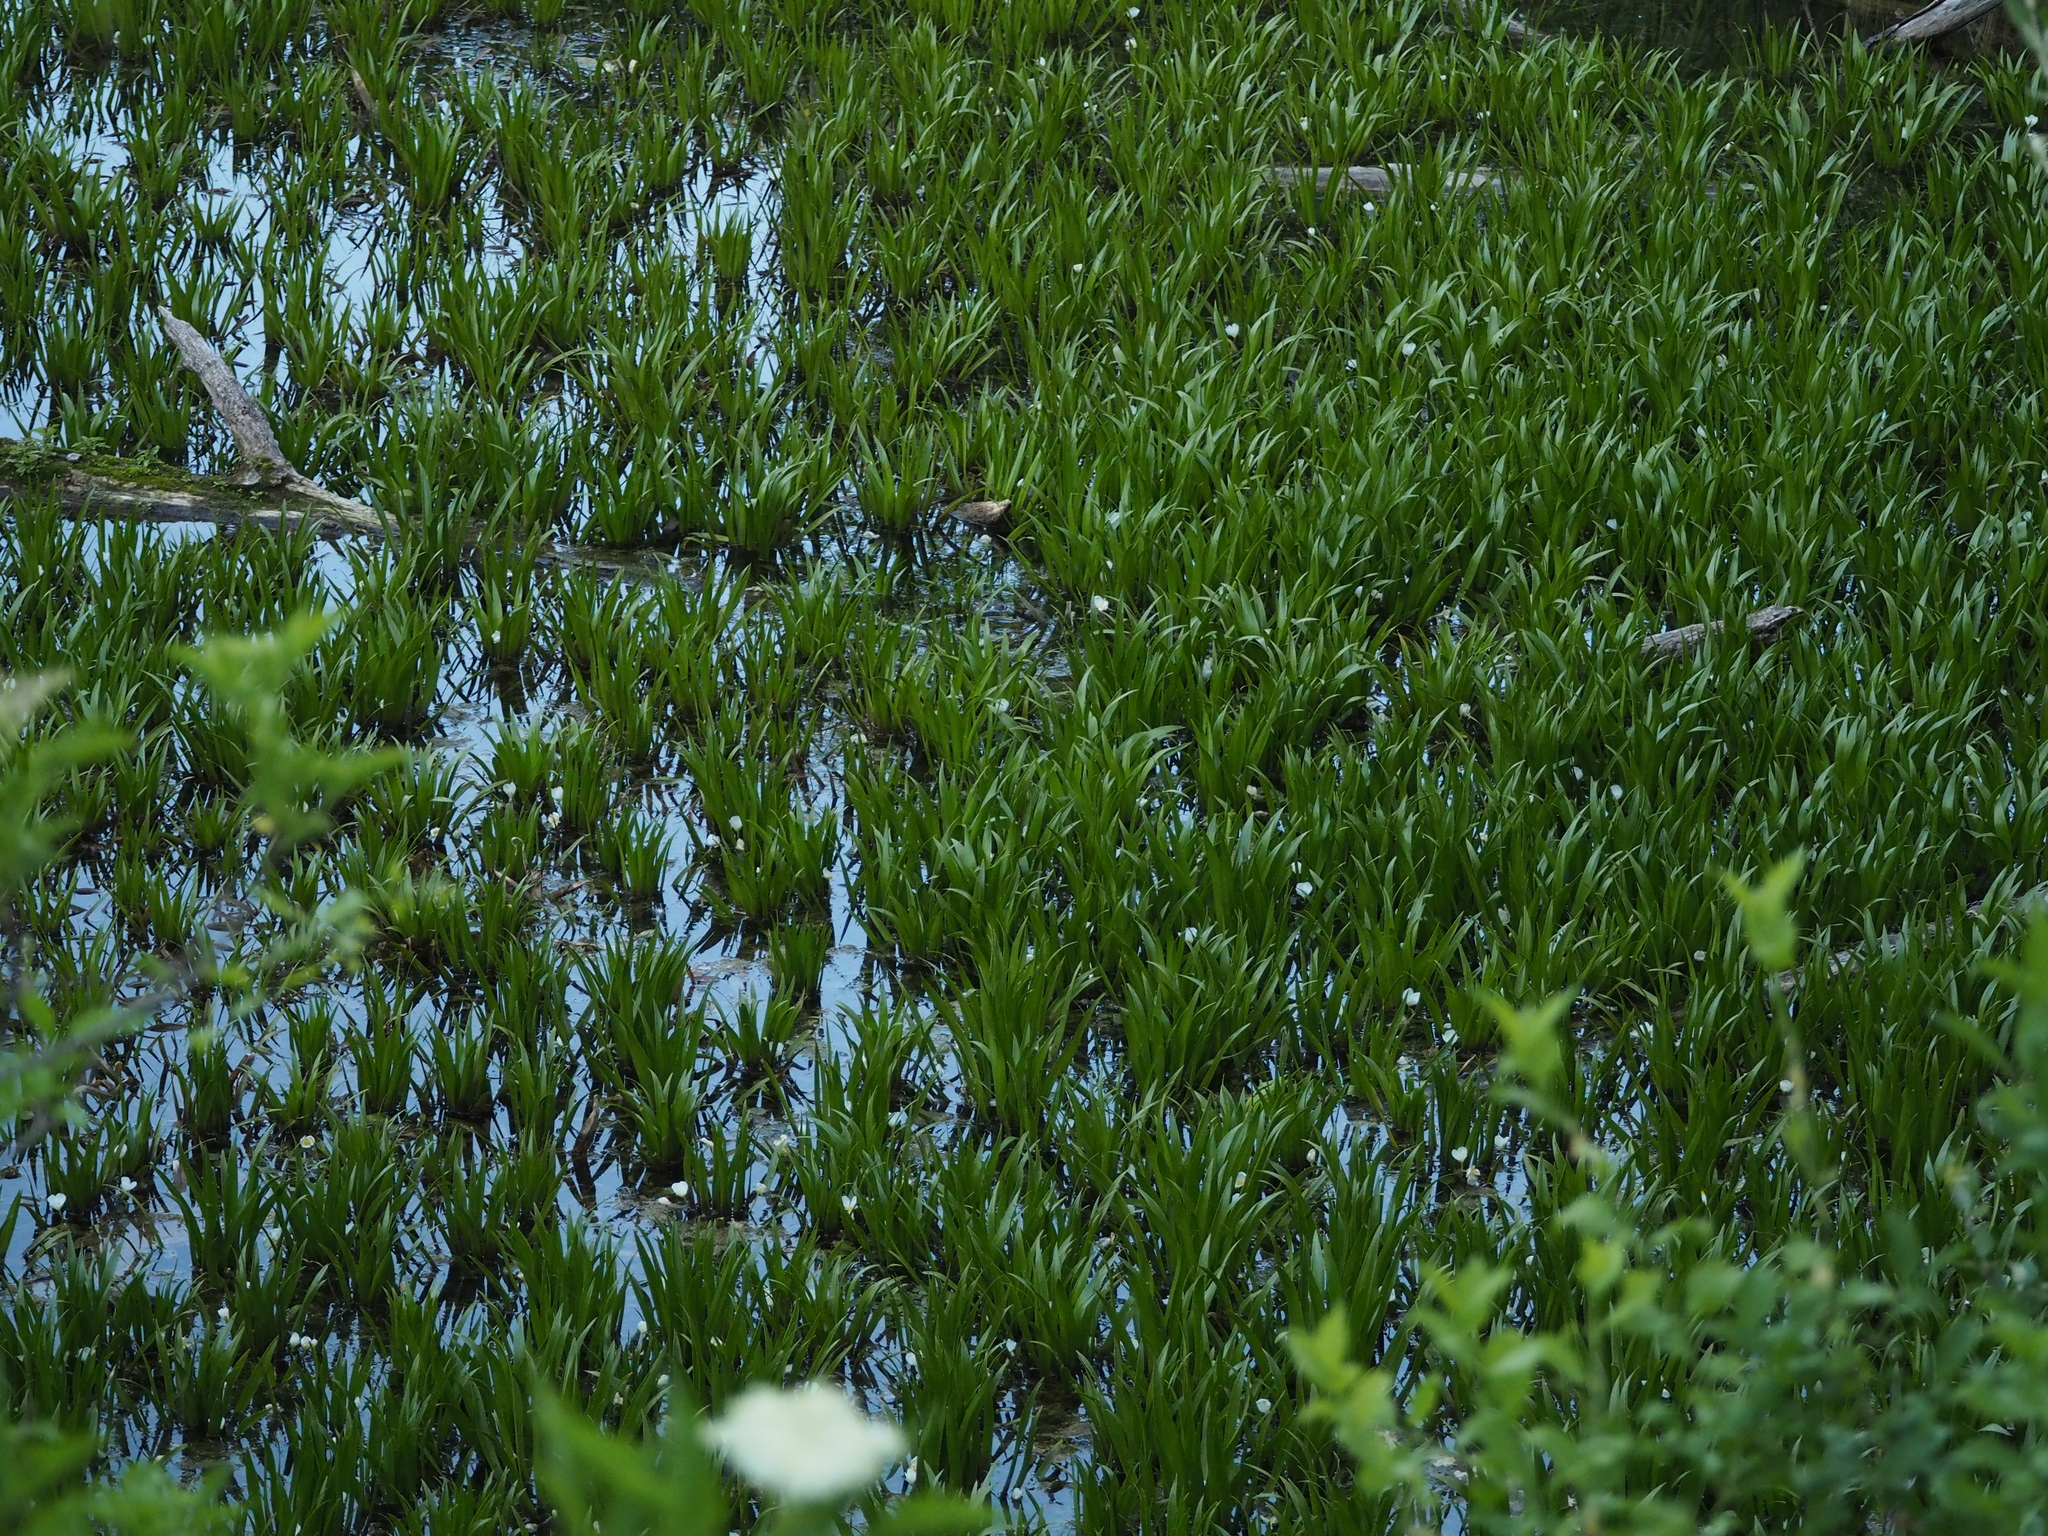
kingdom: Plantae
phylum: Tracheophyta
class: Liliopsida
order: Alismatales
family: Hydrocharitaceae
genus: Stratiotes
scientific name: Stratiotes aloides
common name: Water-soldier
